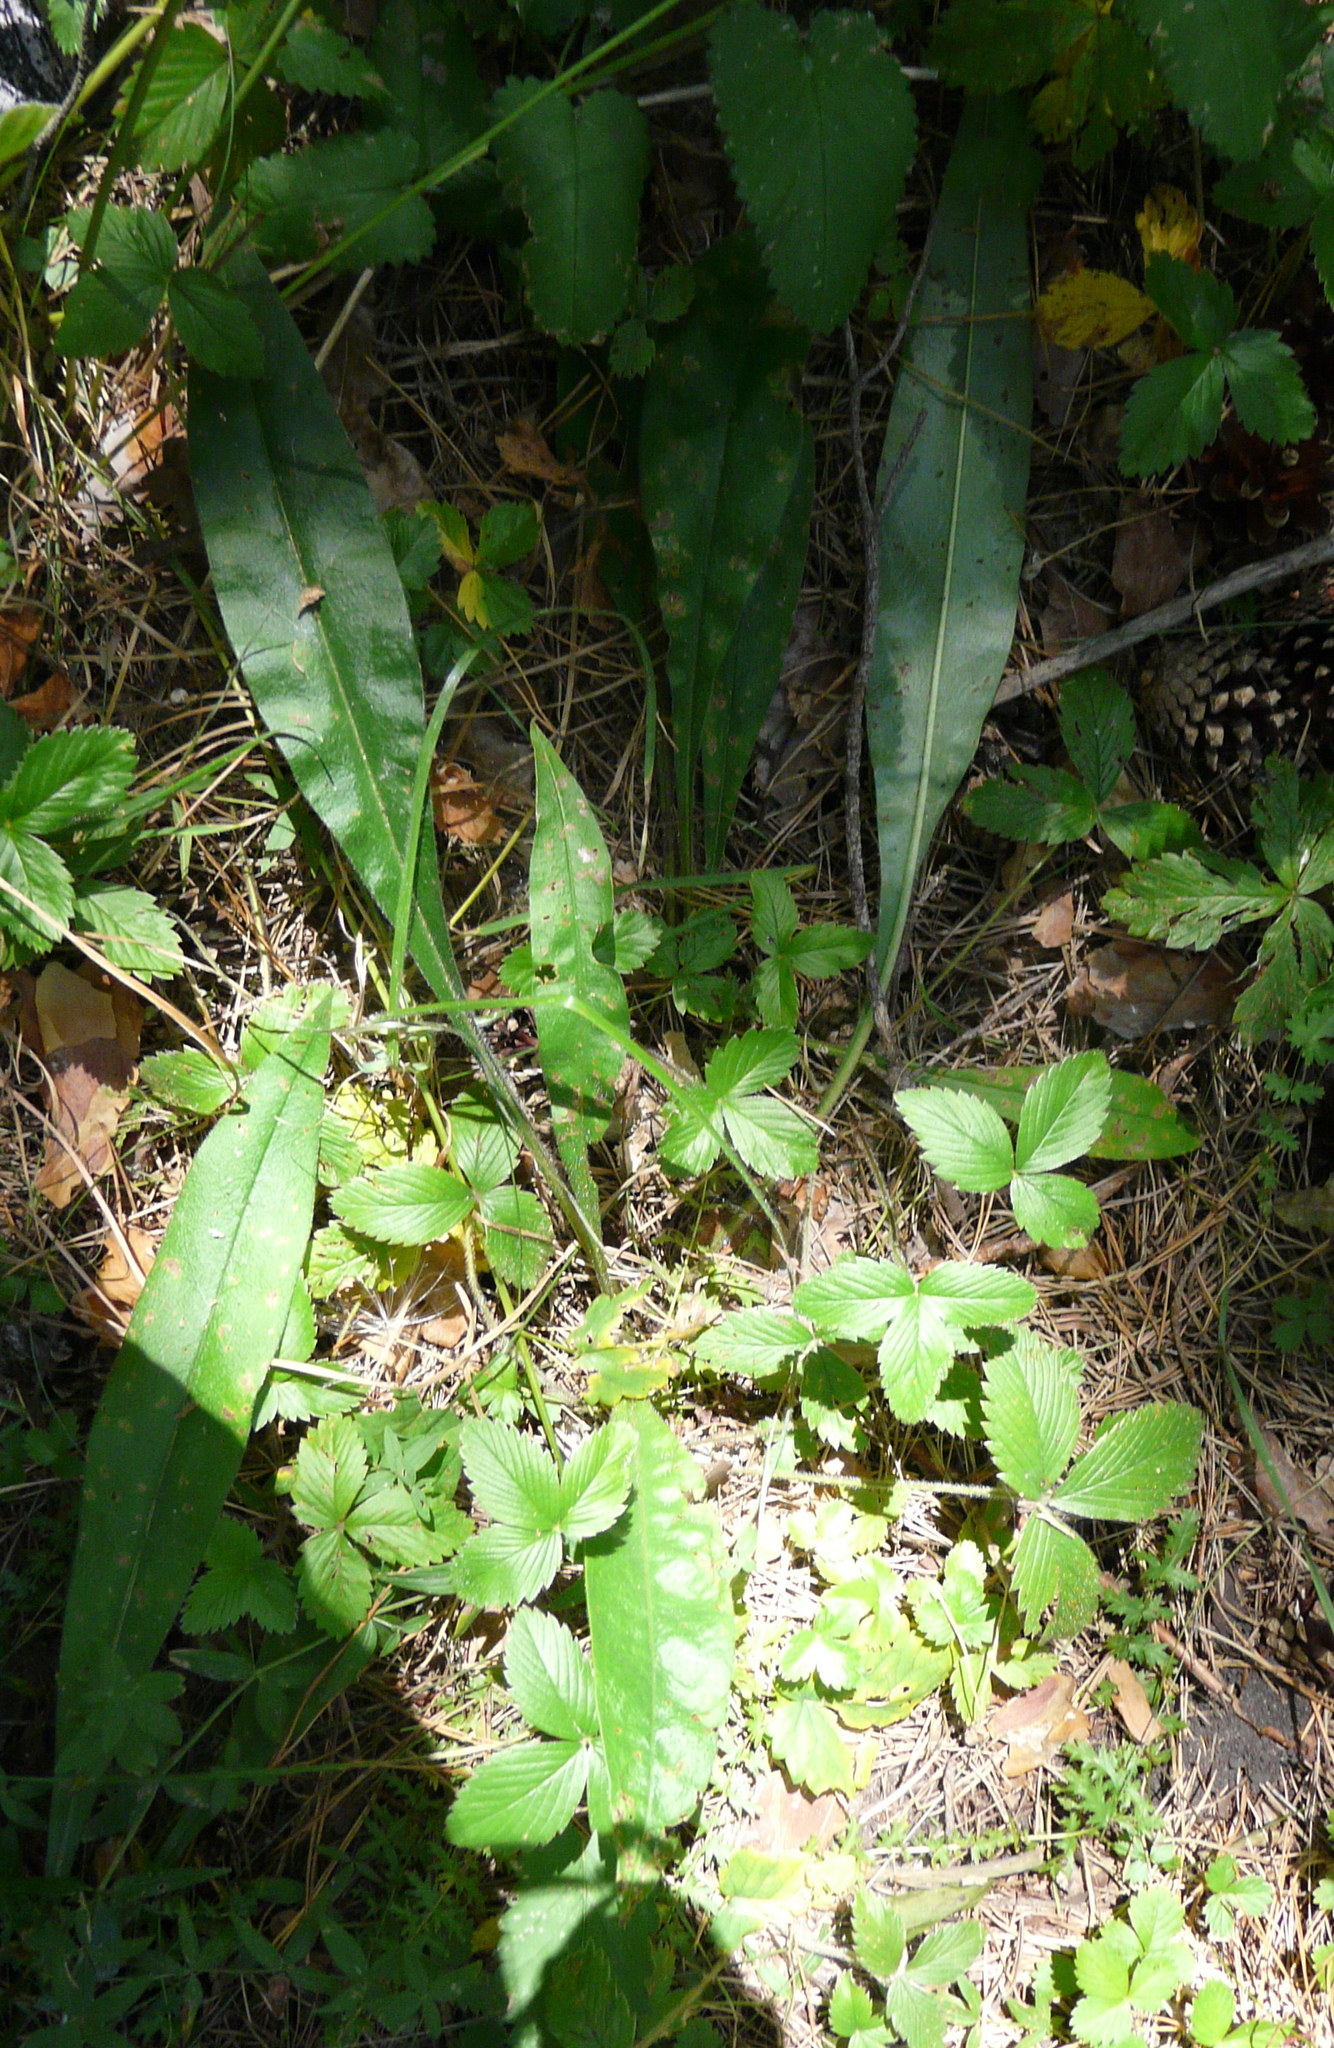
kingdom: Plantae
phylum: Tracheophyta
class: Magnoliopsida
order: Boraginales
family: Boraginaceae
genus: Pulmonaria
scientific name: Pulmonaria angustifolia
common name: Blue cowslip
